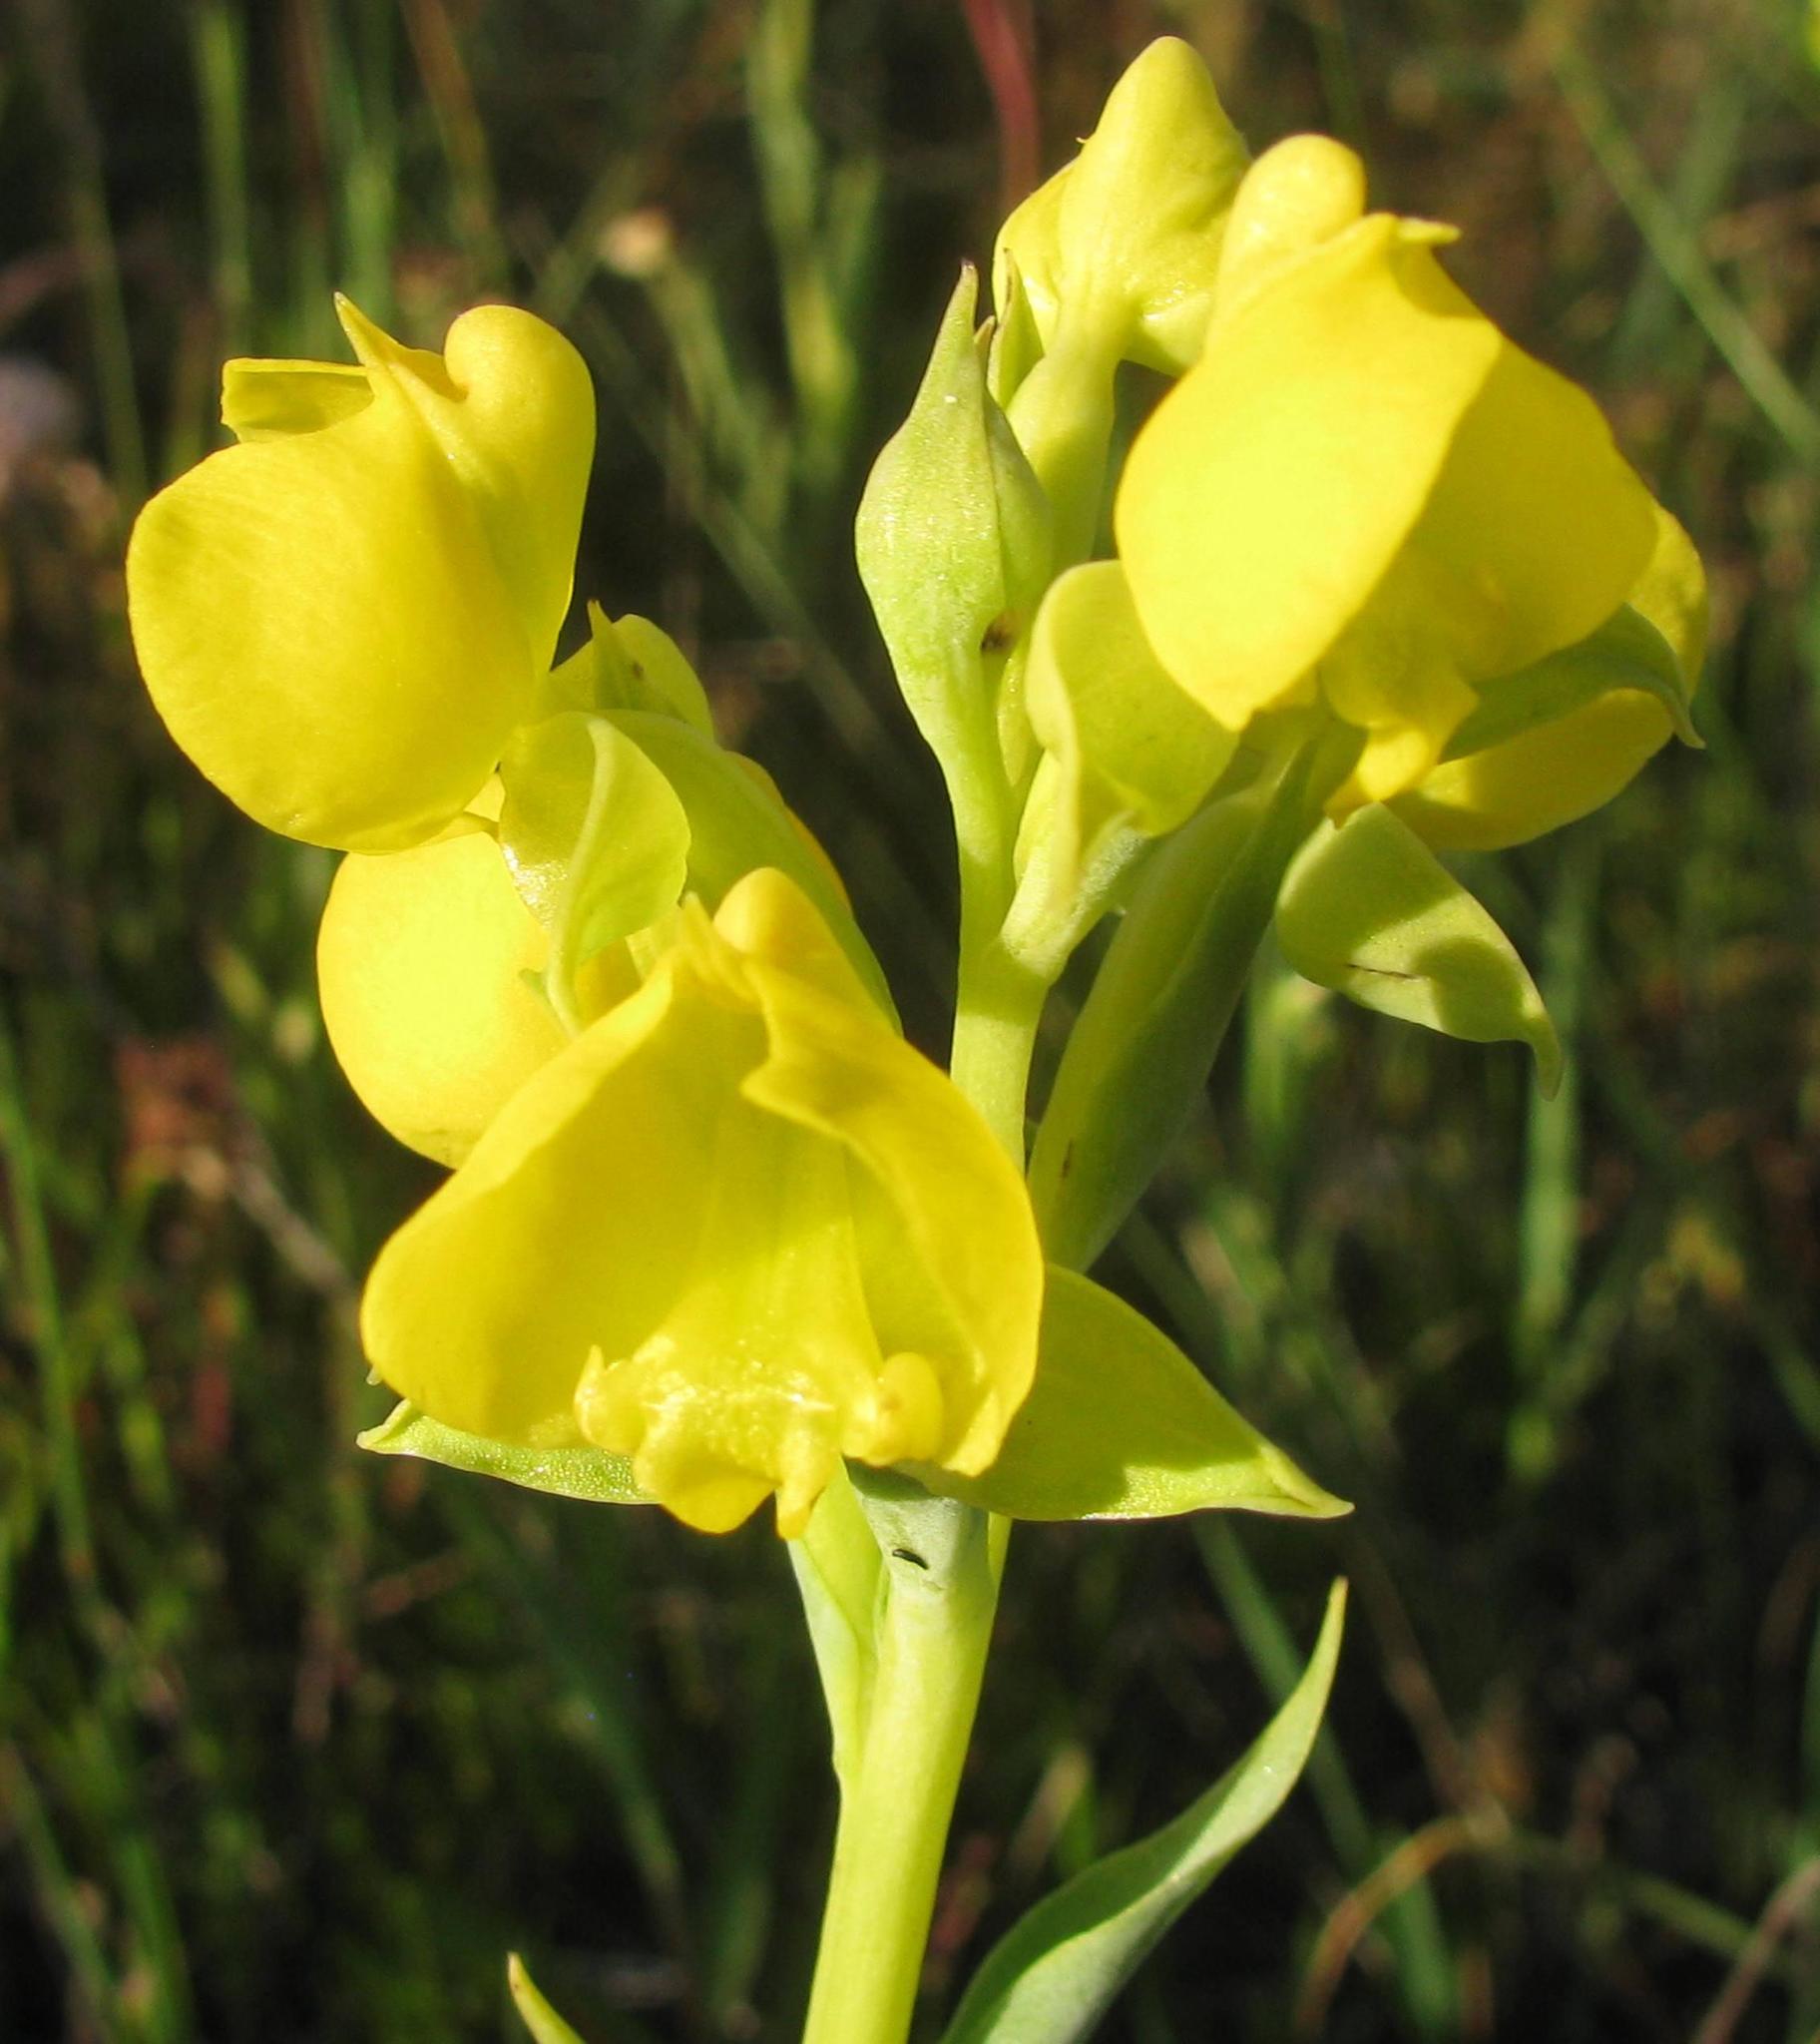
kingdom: Plantae
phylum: Tracheophyta
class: Liliopsida
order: Asparagales
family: Orchidaceae
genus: Pterygodium
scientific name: Pterygodium acutifolium
